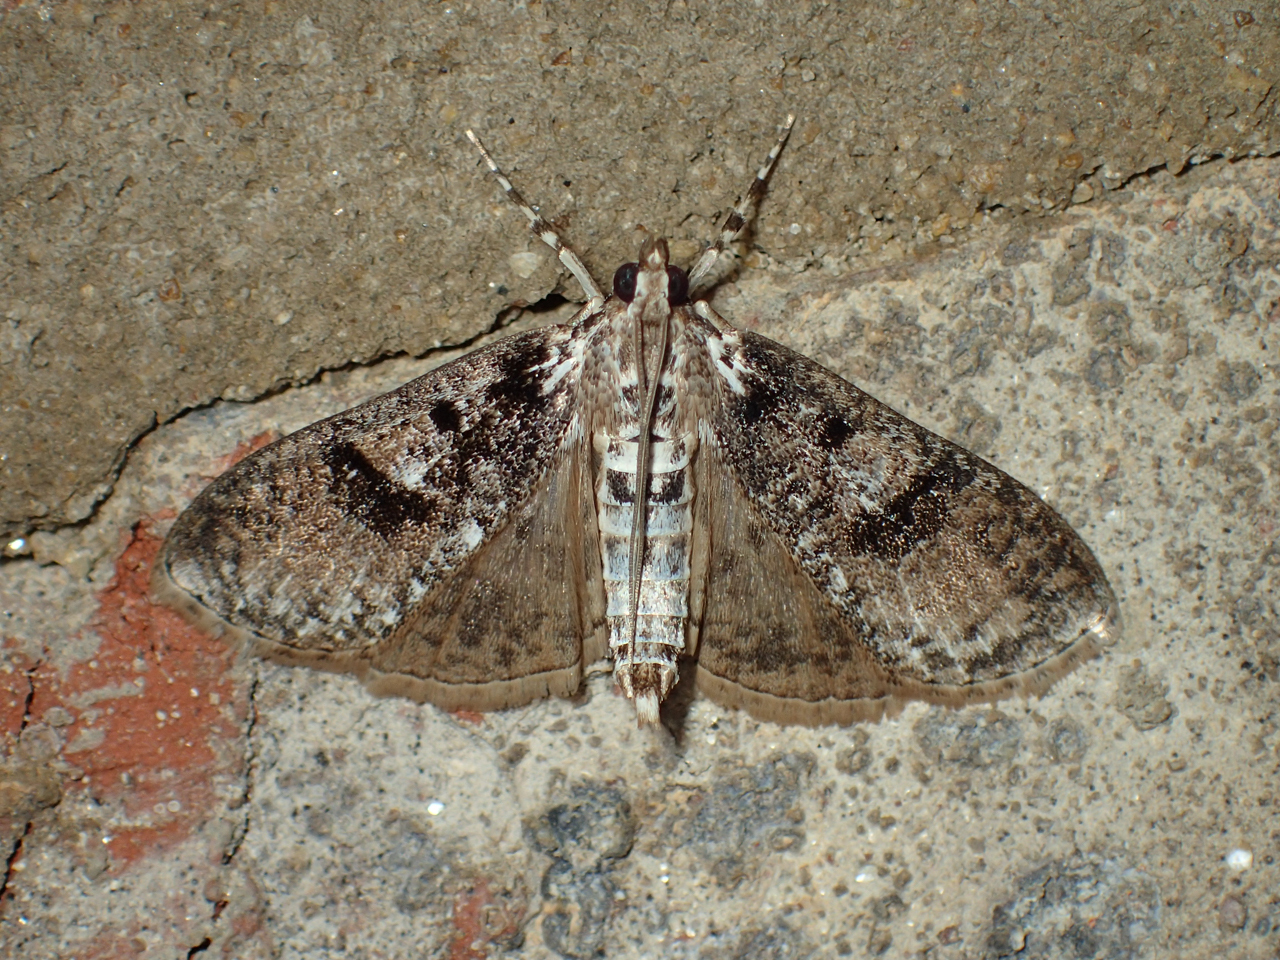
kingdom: Animalia
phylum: Arthropoda
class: Insecta
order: Lepidoptera
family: Crambidae
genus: Palpita
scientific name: Palpita magniferalis
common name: Splendid palpita moth
